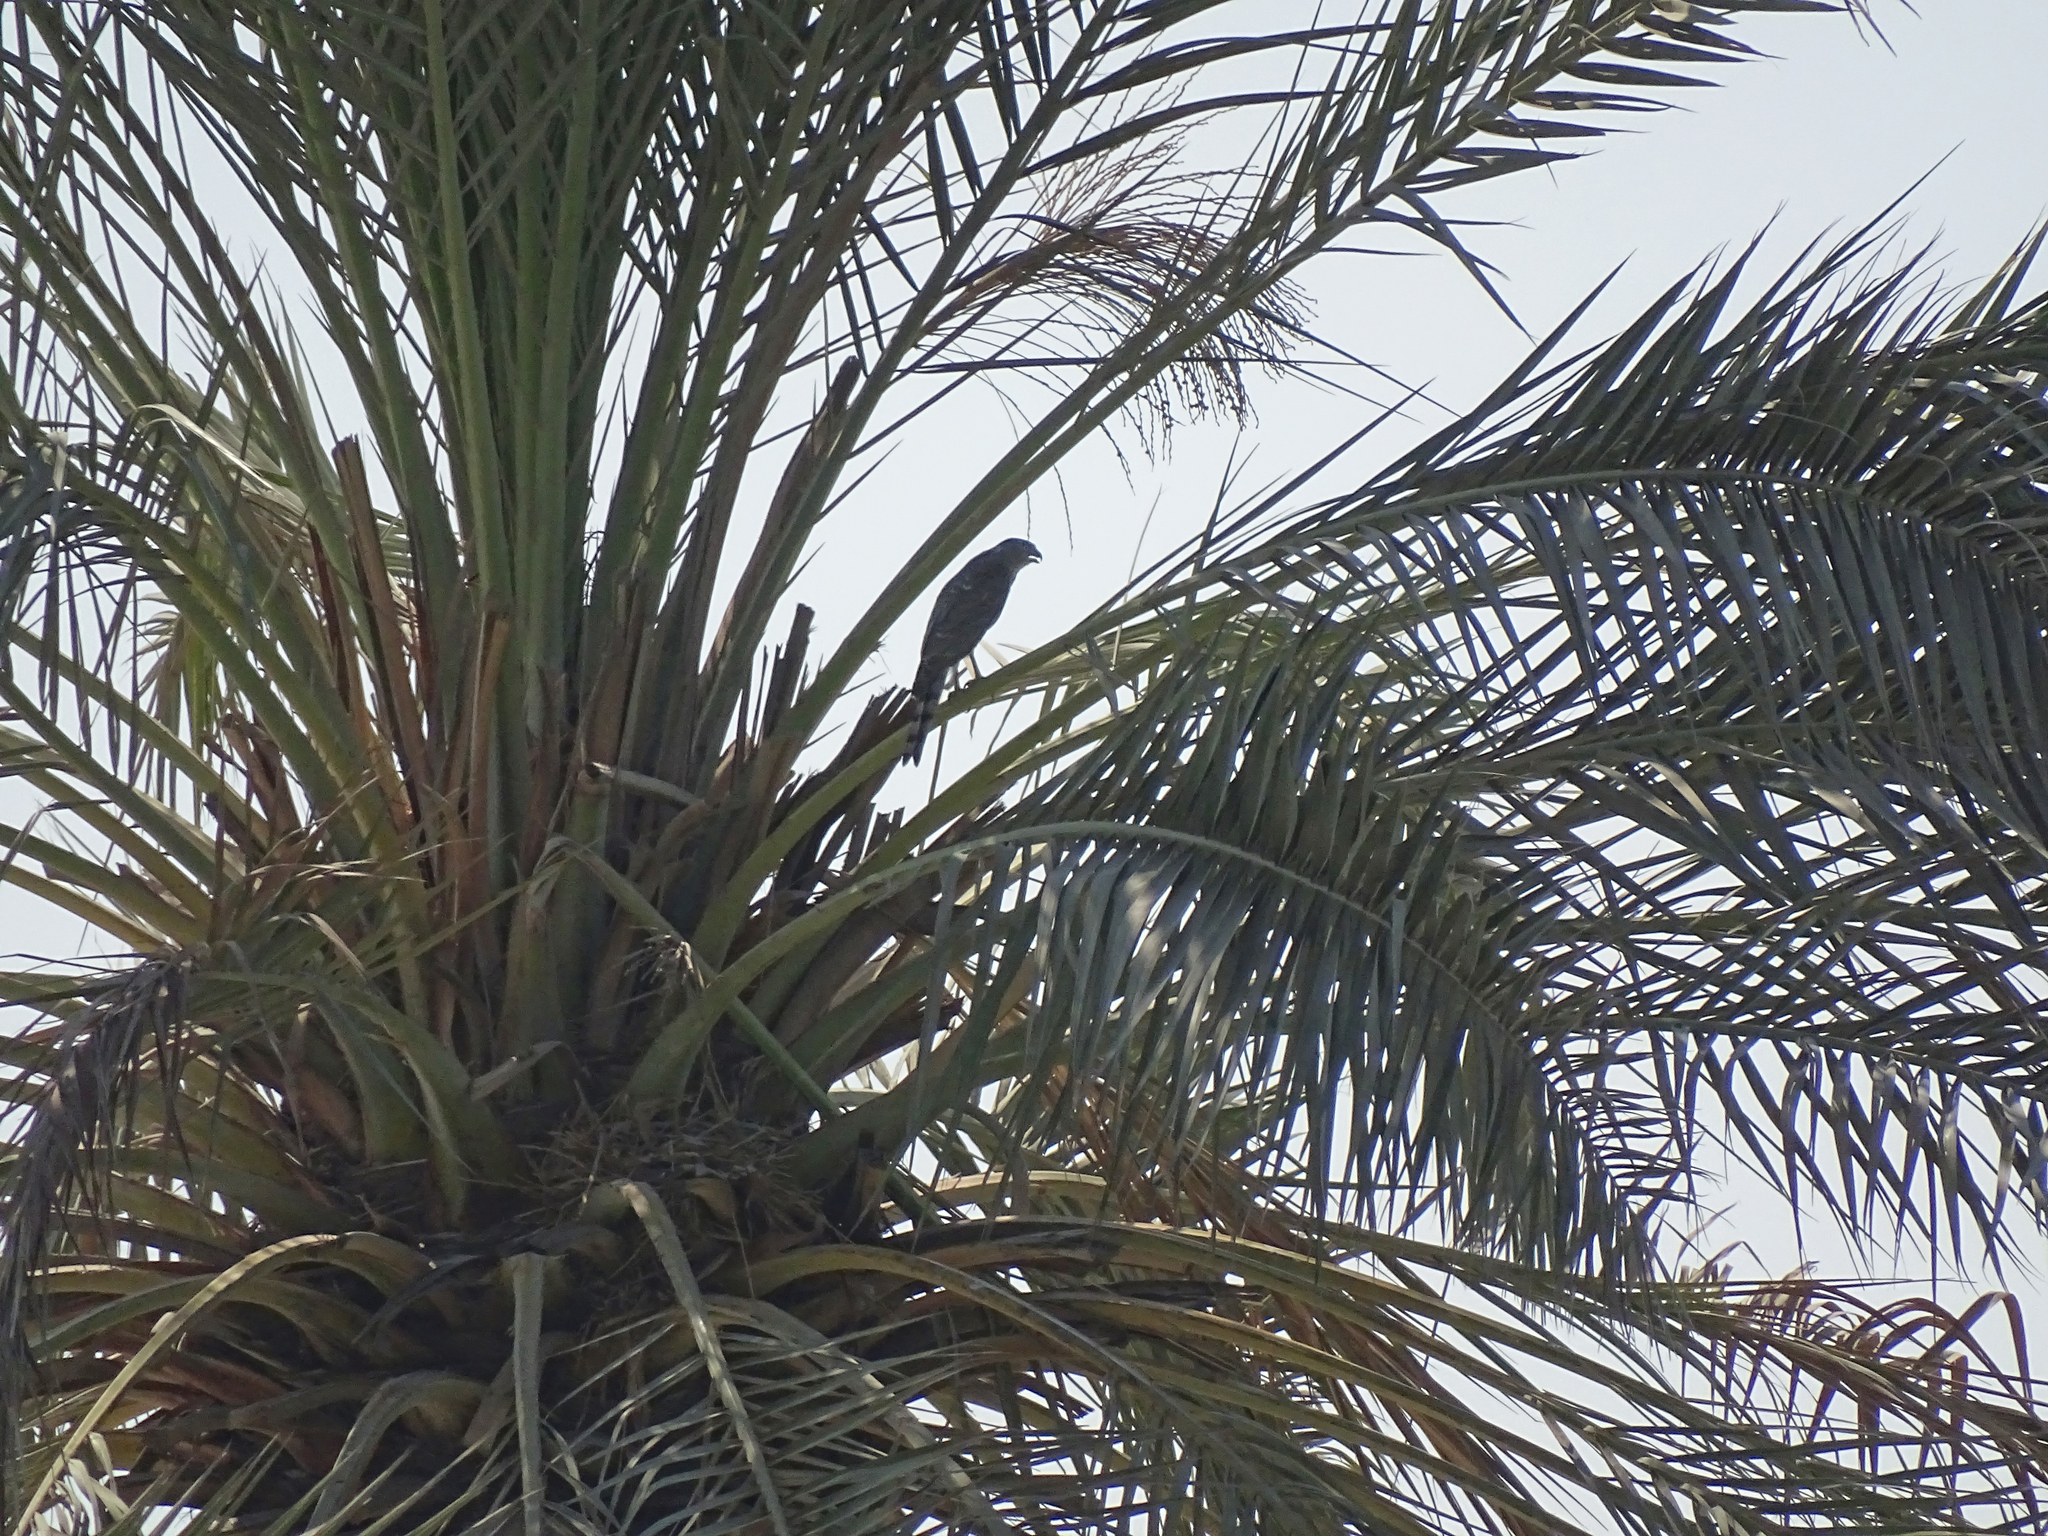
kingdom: Animalia
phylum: Chordata
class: Aves
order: Accipitriformes
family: Accipitridae
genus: Accipiter
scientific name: Accipiter badius
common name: Shikra
